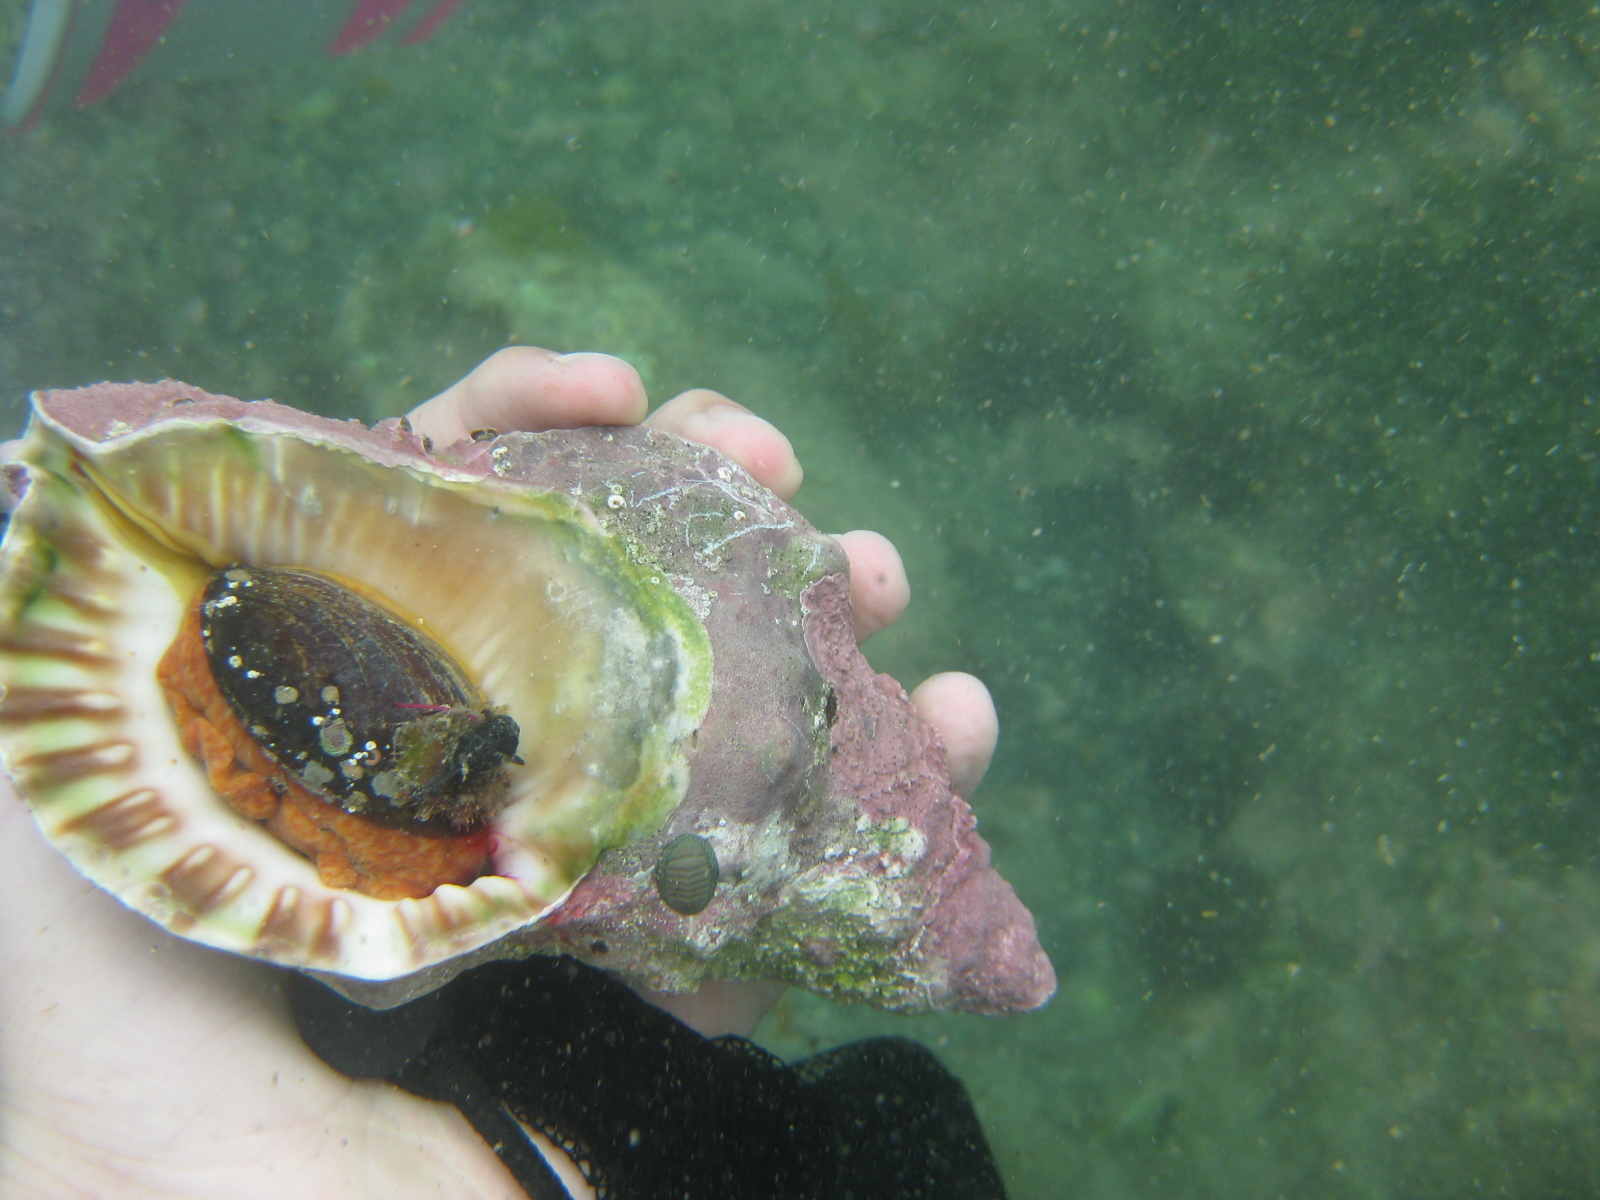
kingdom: Animalia
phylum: Mollusca
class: Gastropoda
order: Littorinimorpha
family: Charoniidae
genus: Charonia
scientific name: Charonia lampas
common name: Knobbed triton
